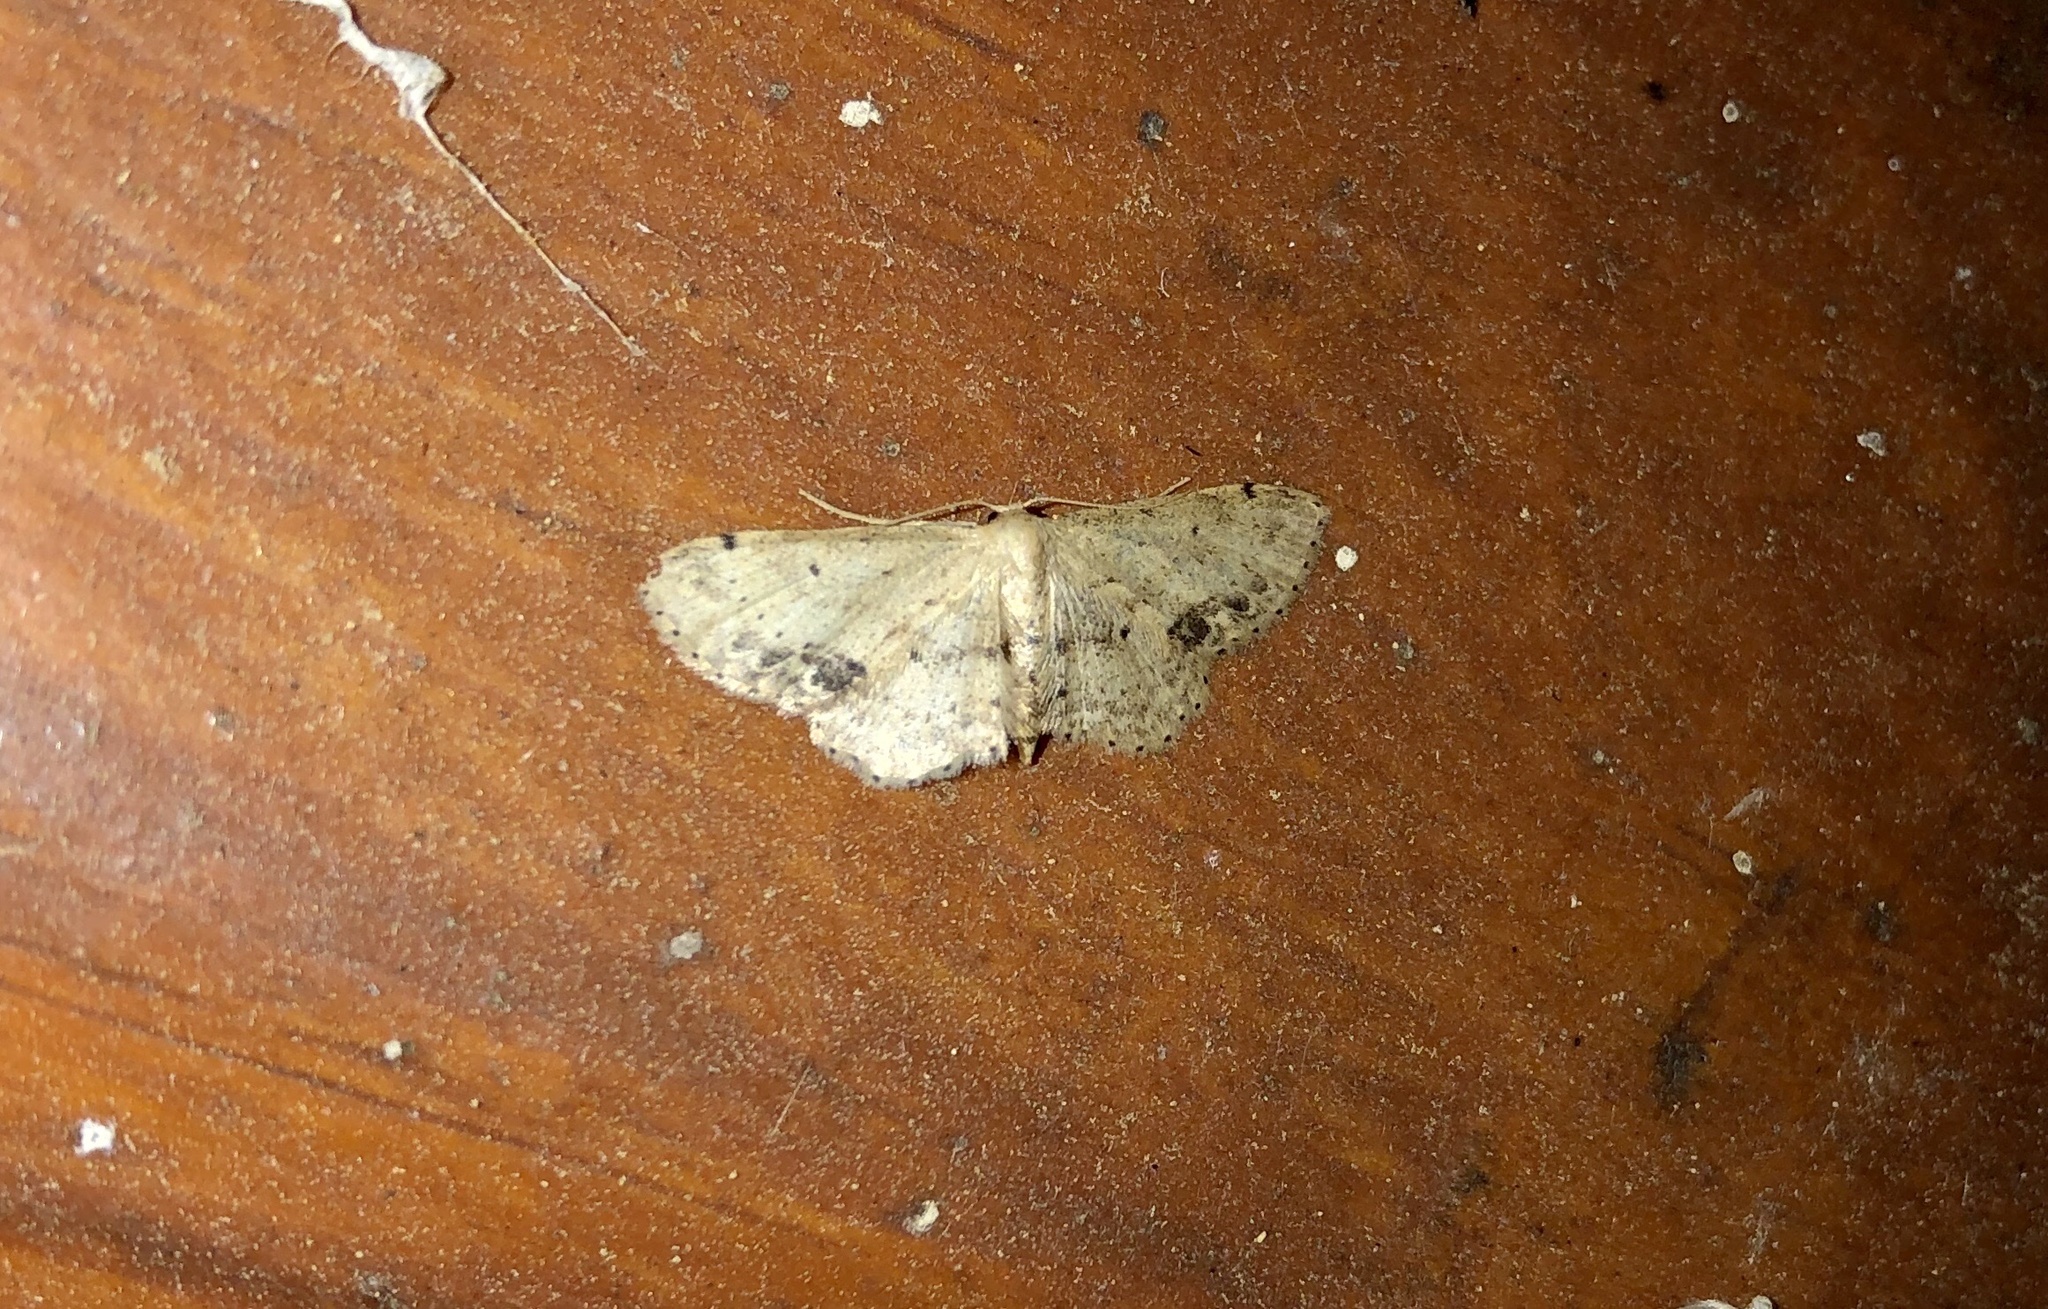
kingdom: Animalia
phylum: Arthropoda
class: Insecta
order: Lepidoptera
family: Geometridae
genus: Idaea
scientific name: Idaea dimidiata
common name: Single-dotted wave
